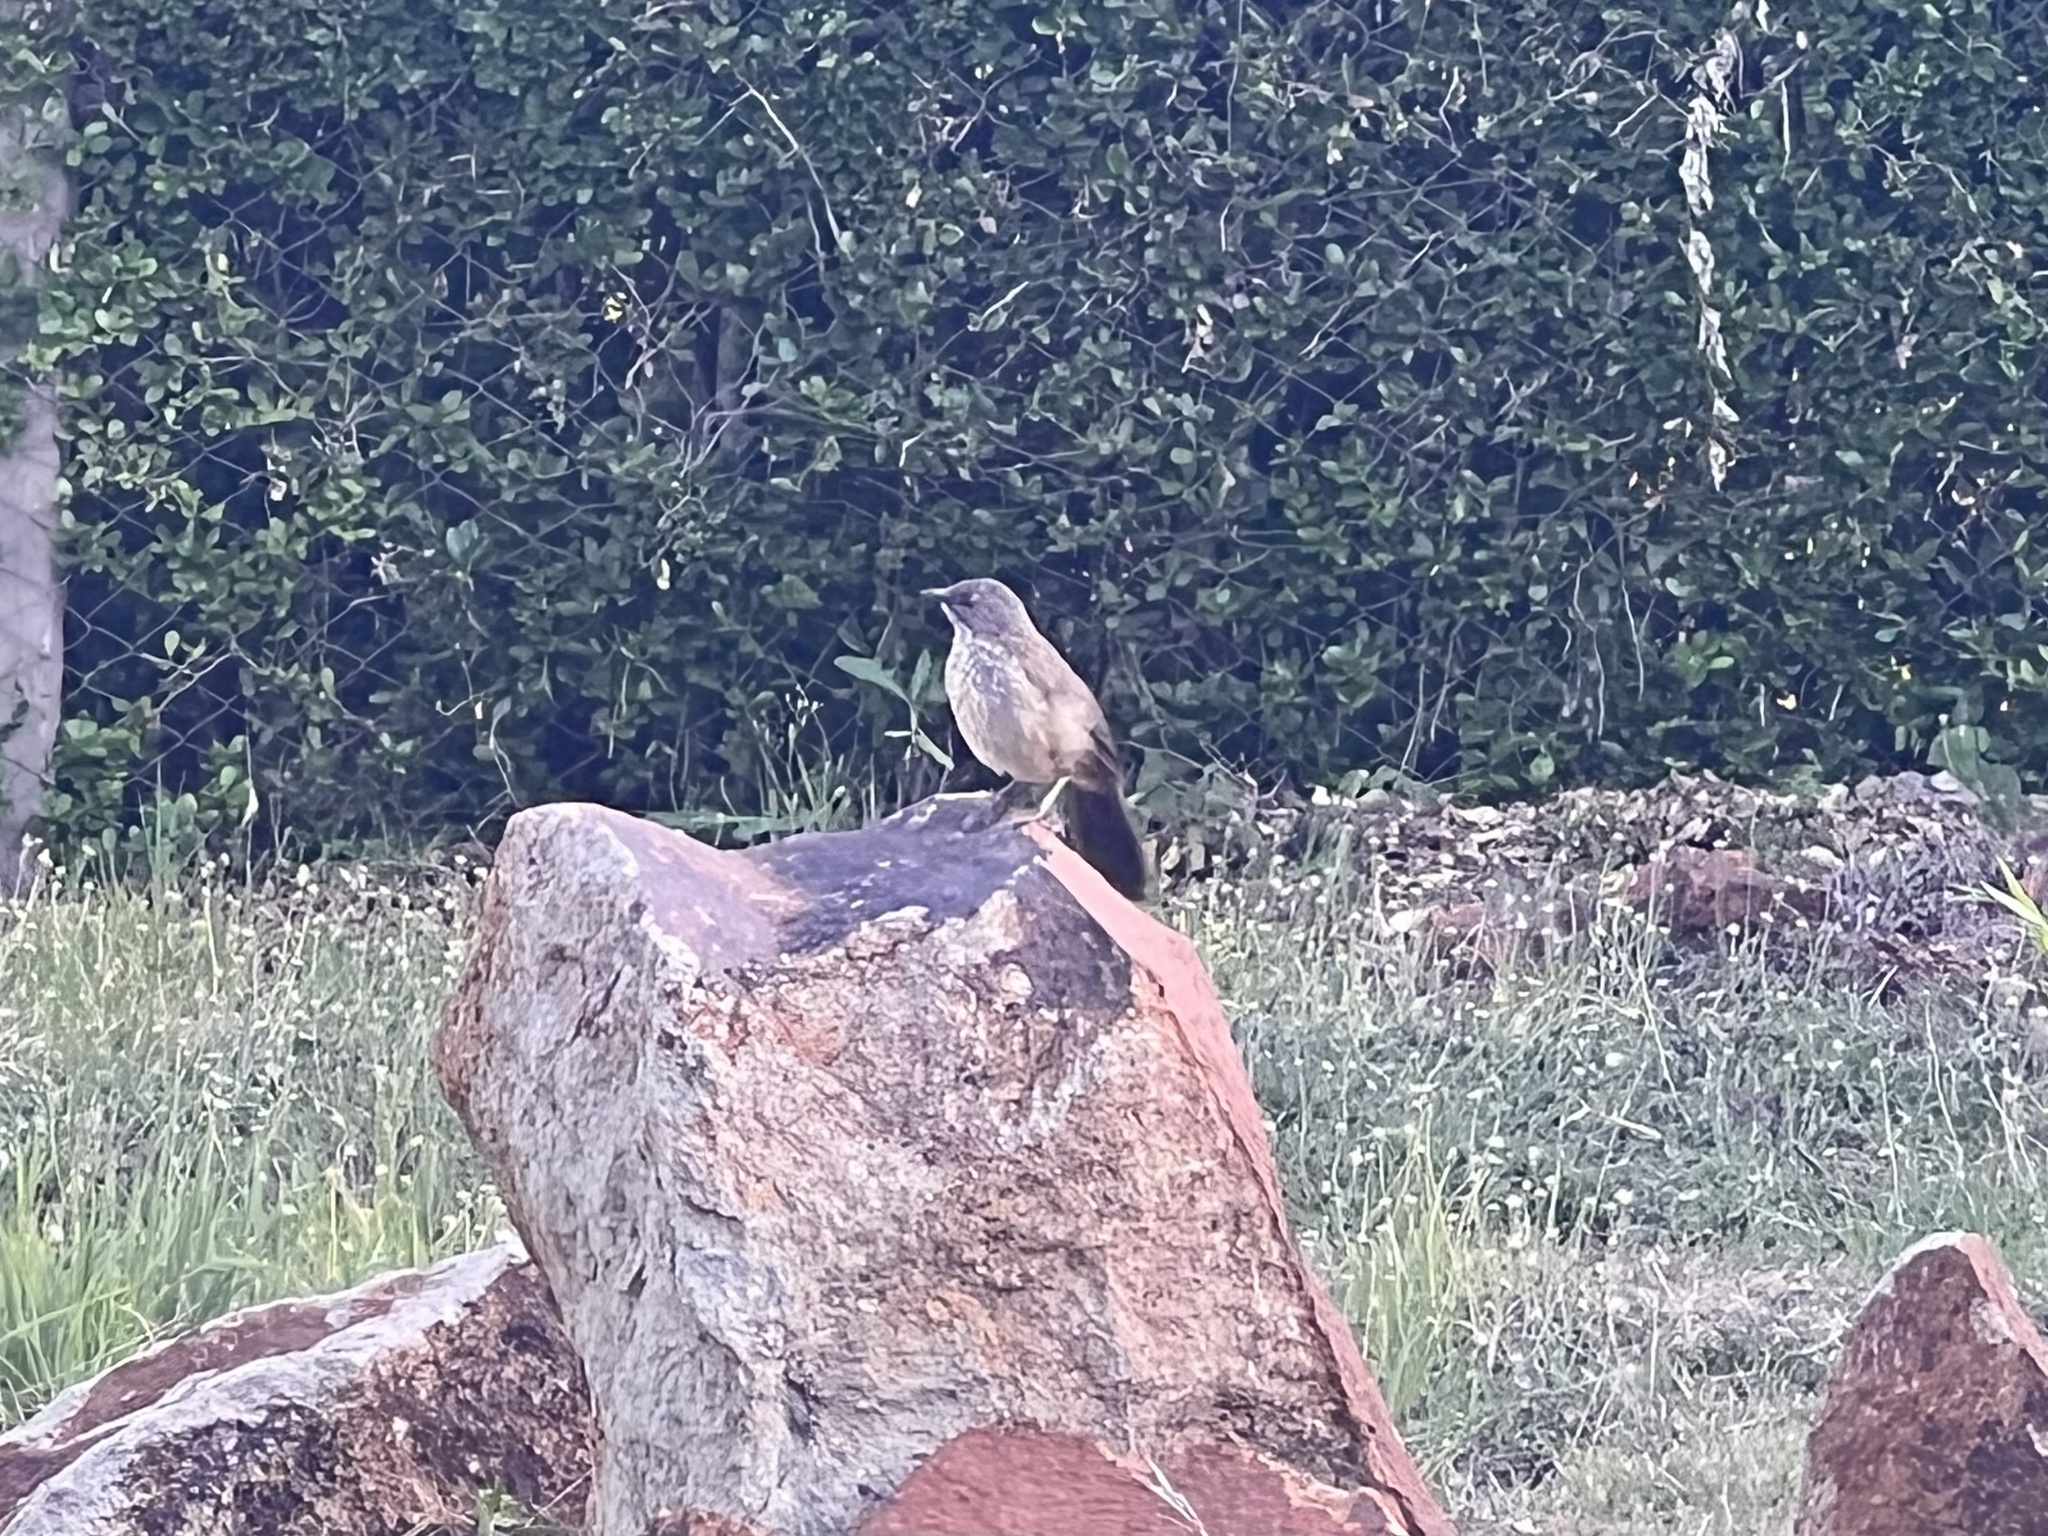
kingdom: Animalia
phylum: Chordata
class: Aves
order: Passeriformes
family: Leiothrichidae
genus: Turdoides
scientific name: Turdoides jardineii
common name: Arrow-marked babbler
